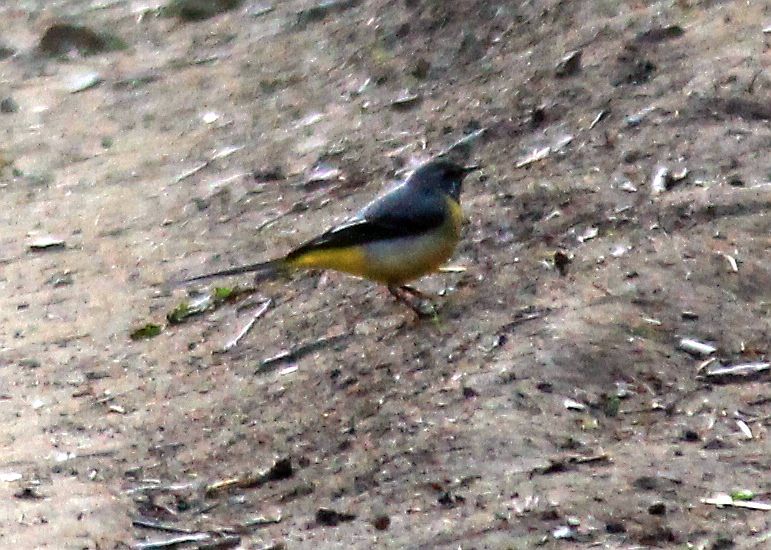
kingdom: Animalia
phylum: Chordata
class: Aves
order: Passeriformes
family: Motacillidae
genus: Motacilla
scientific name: Motacilla cinerea
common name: Grey wagtail
